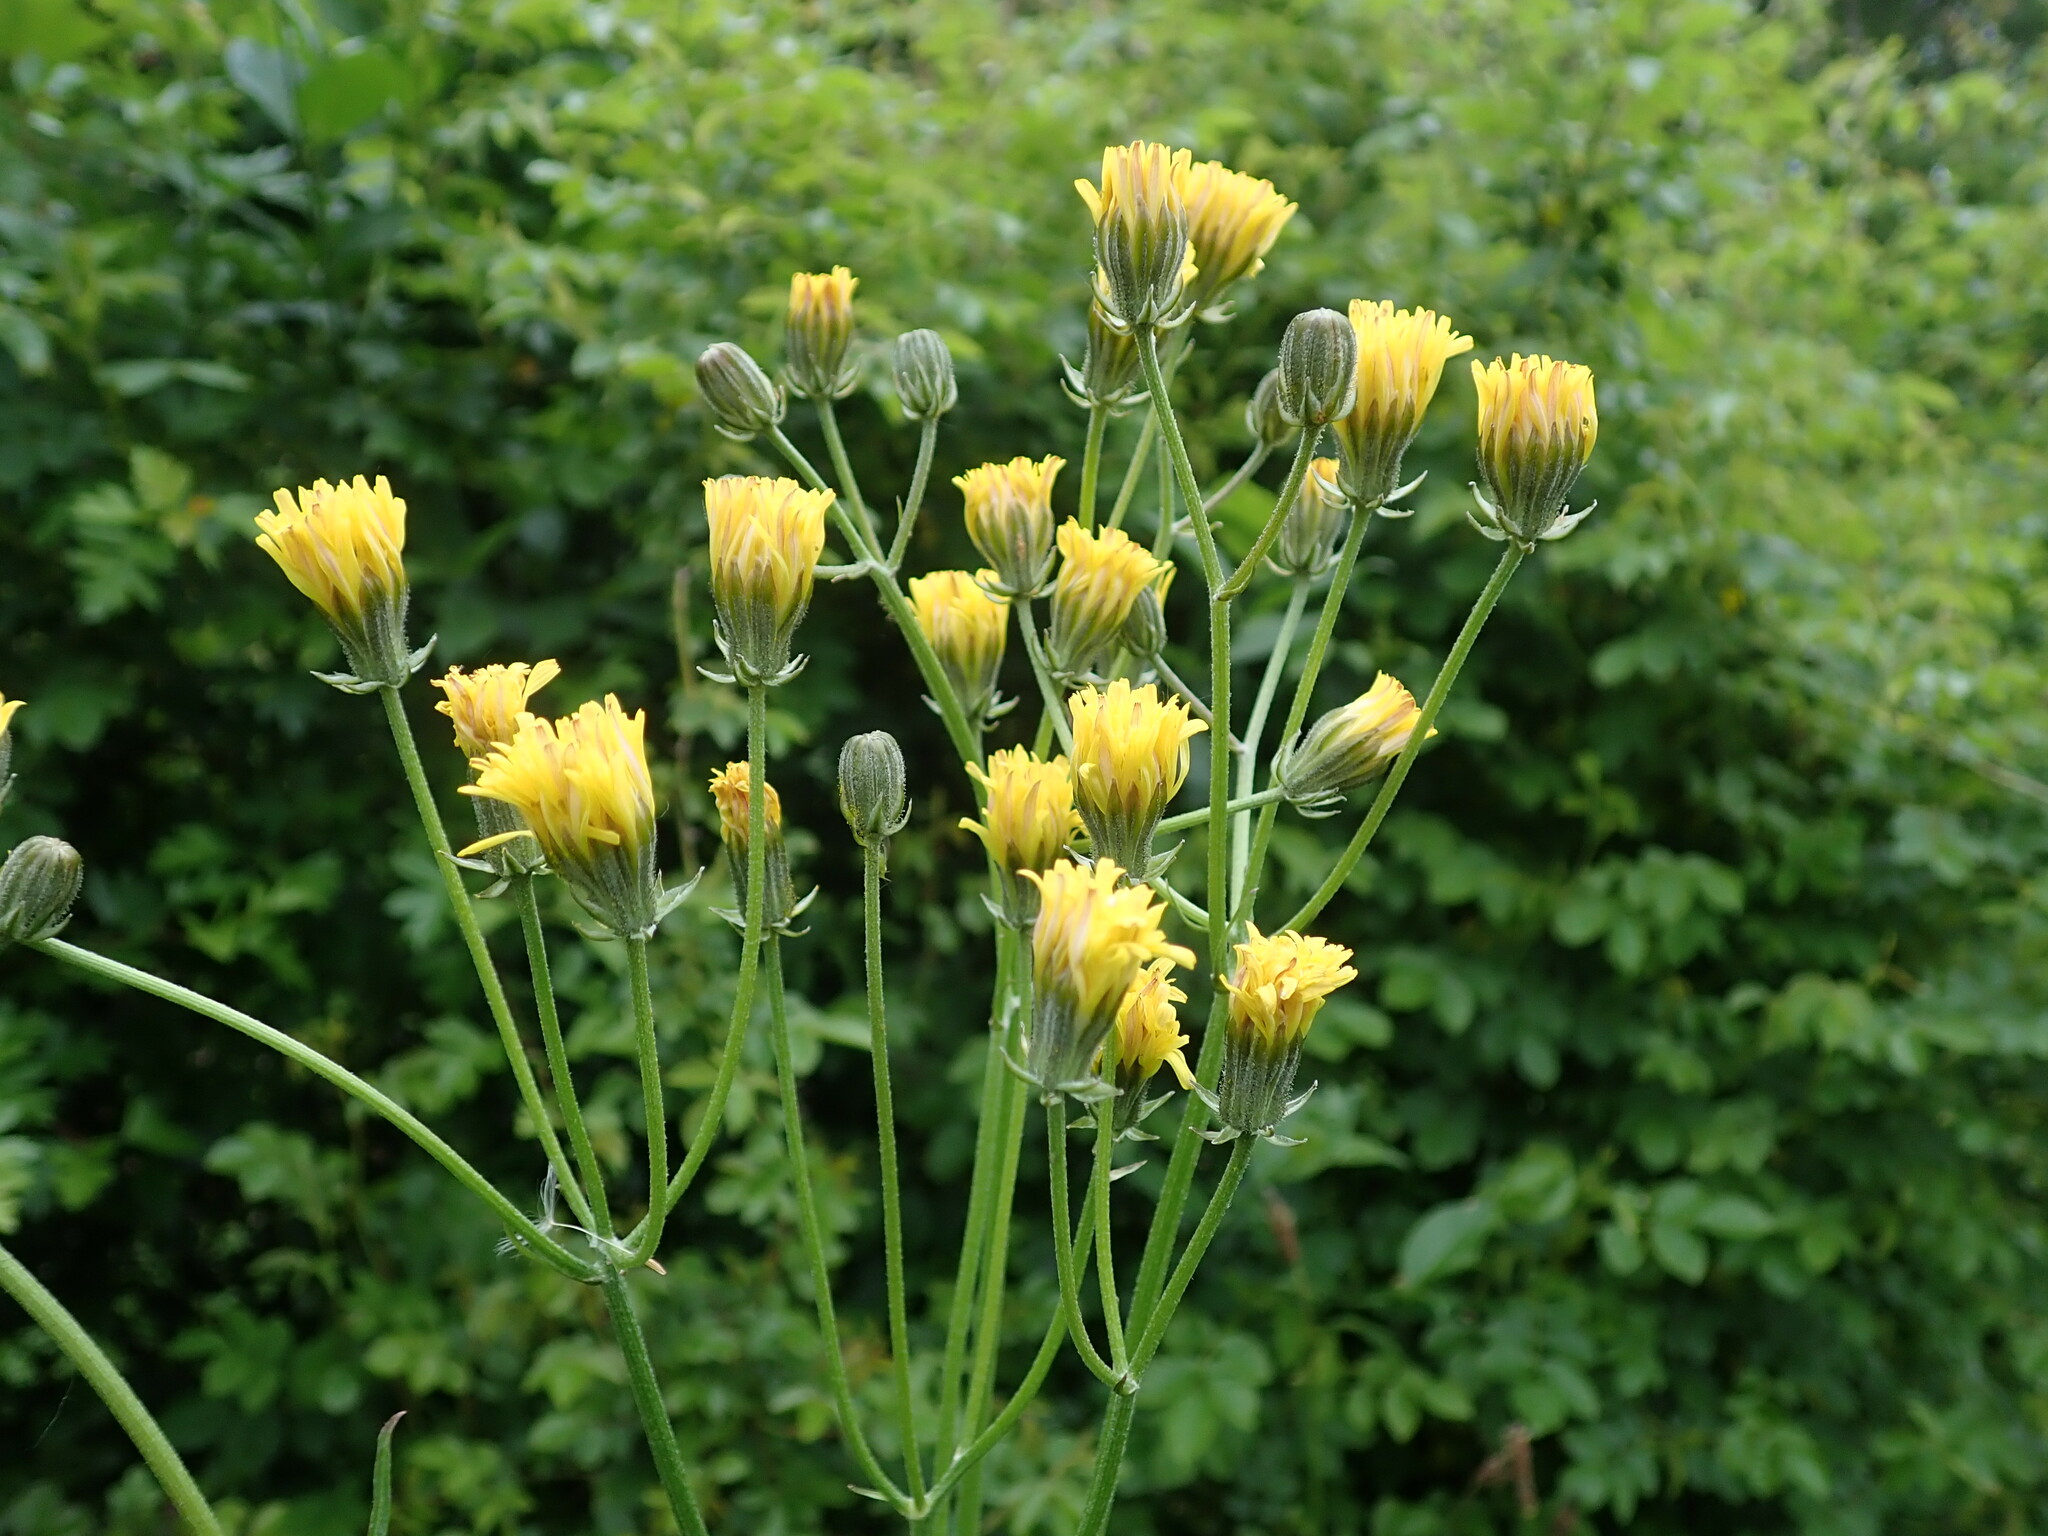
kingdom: Plantae
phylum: Tracheophyta
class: Magnoliopsida
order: Asterales
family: Asteraceae
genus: Crepis
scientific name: Crepis vesicaria
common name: Beaked hawksbeard
